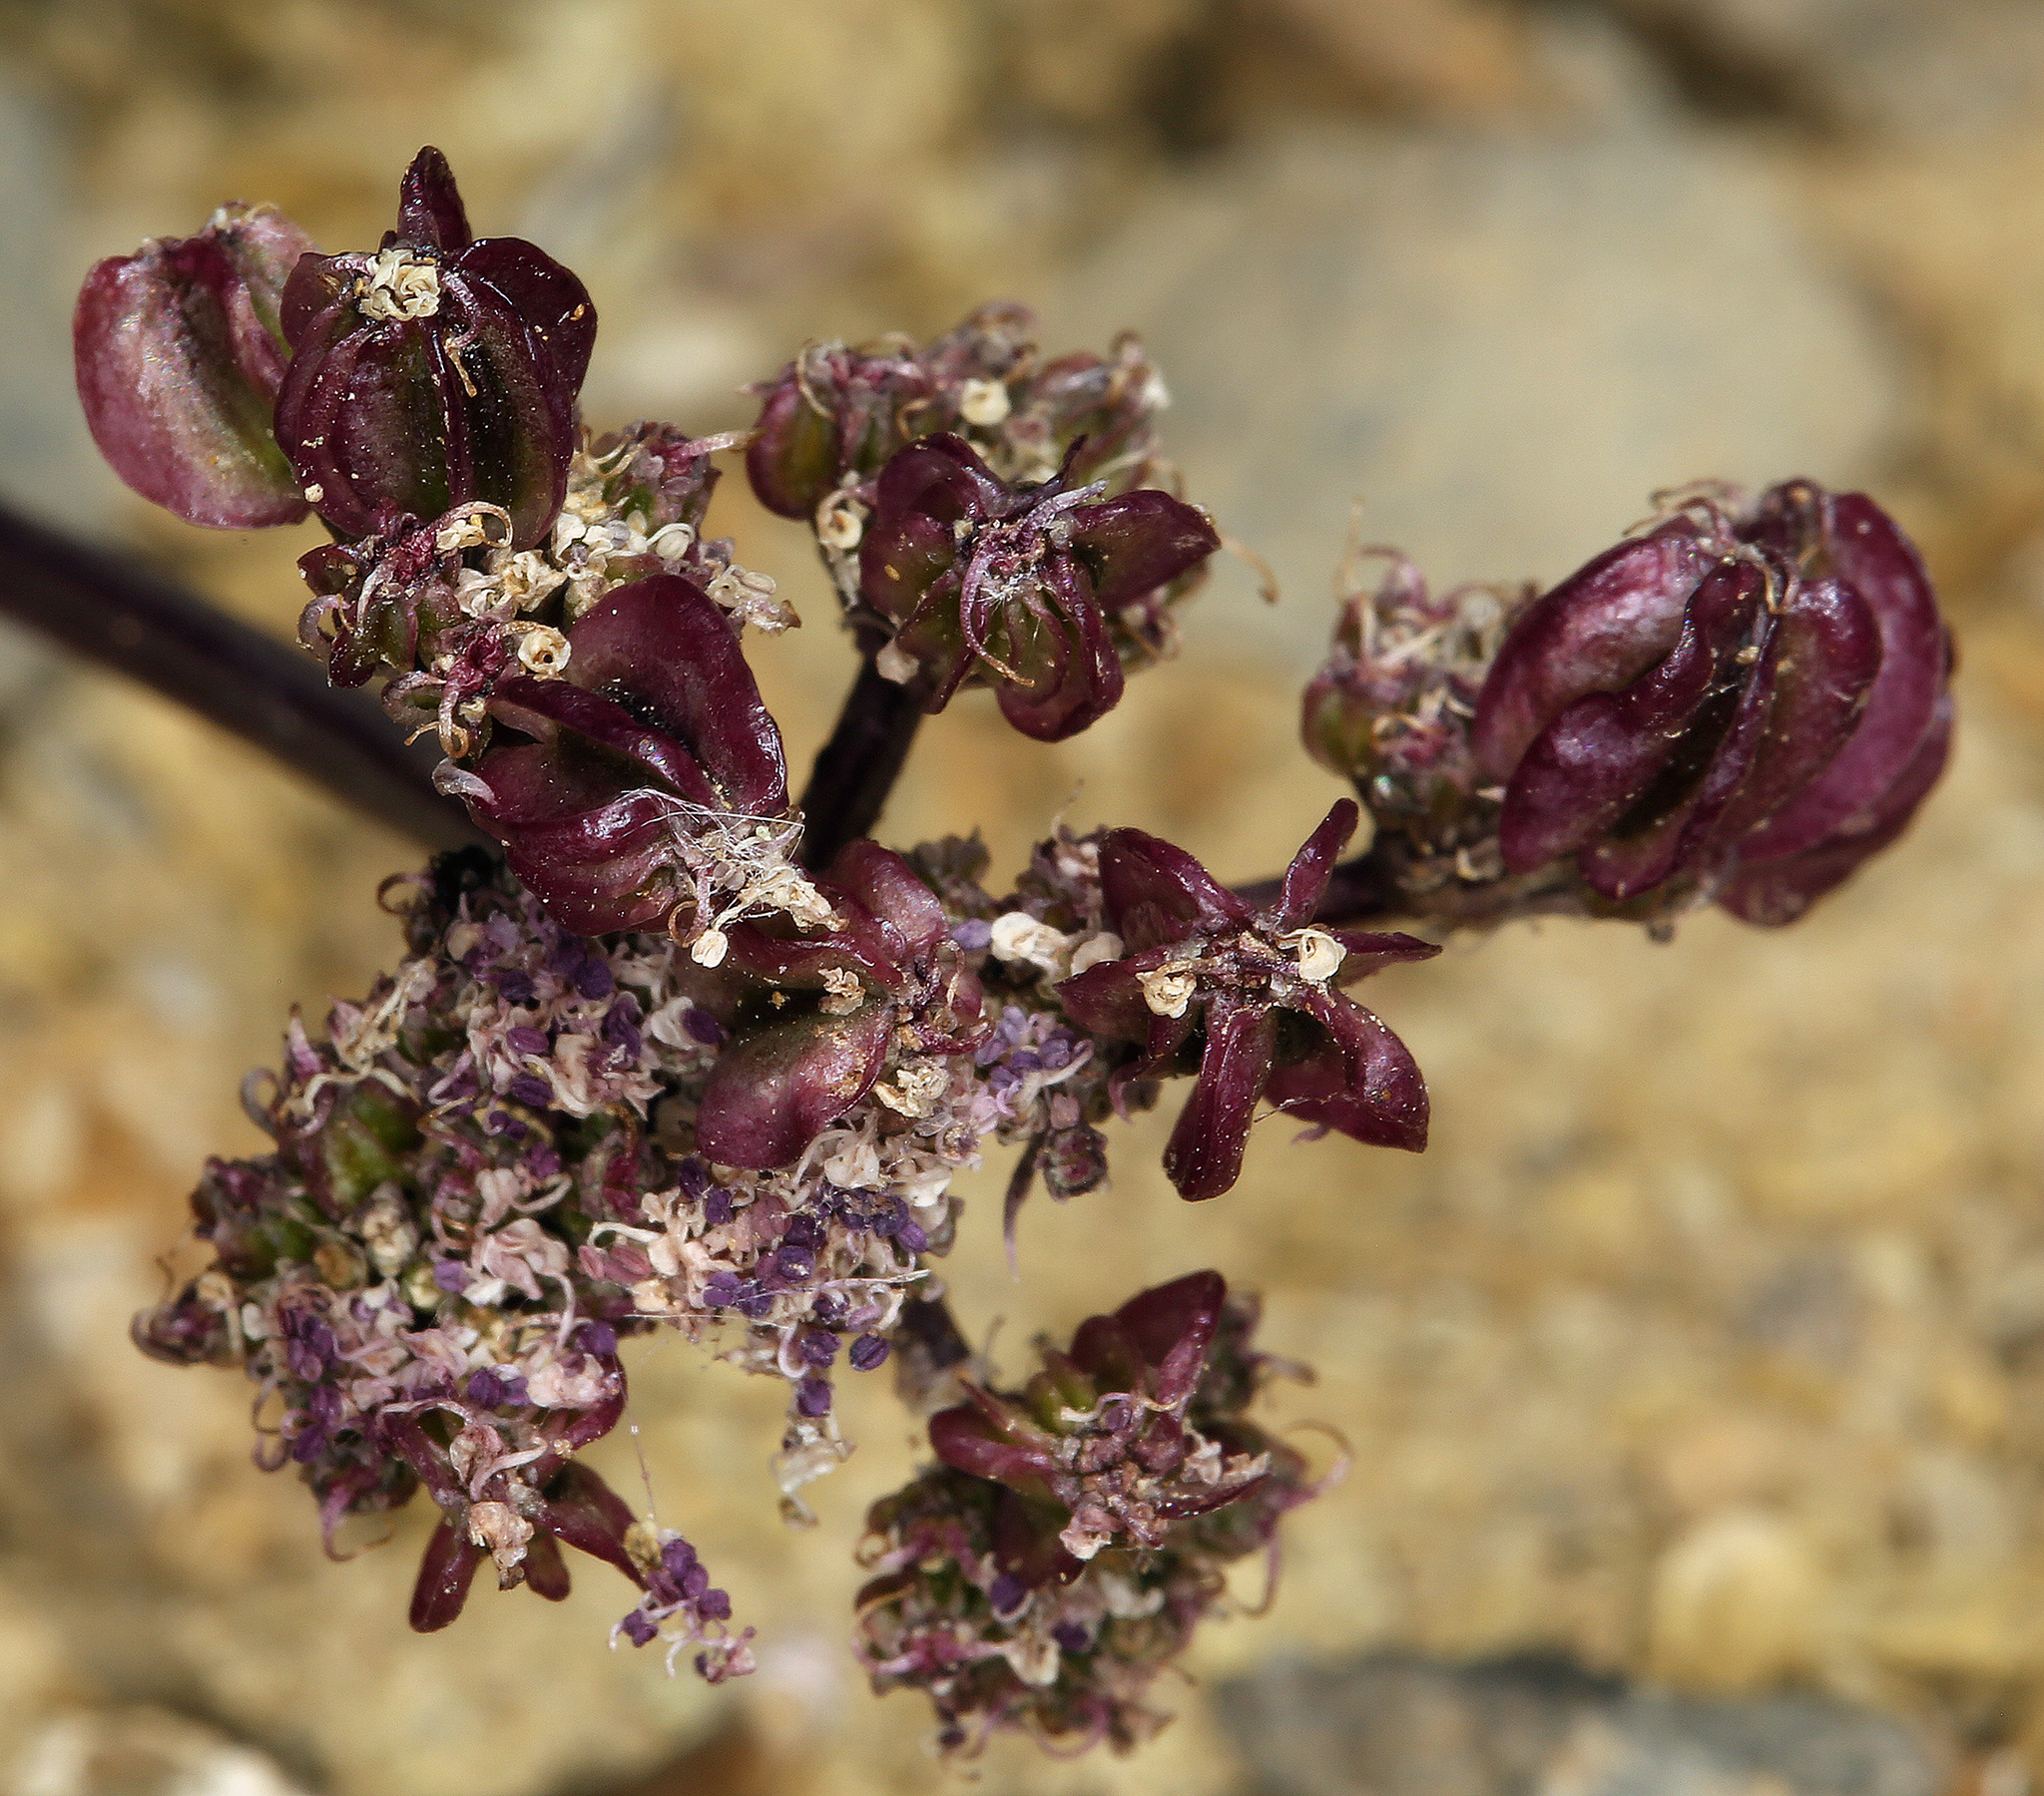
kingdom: Plantae
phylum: Tracheophyta
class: Magnoliopsida
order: Apiales
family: Apiaceae
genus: Aulospermum
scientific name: Aulospermum aboriginum
